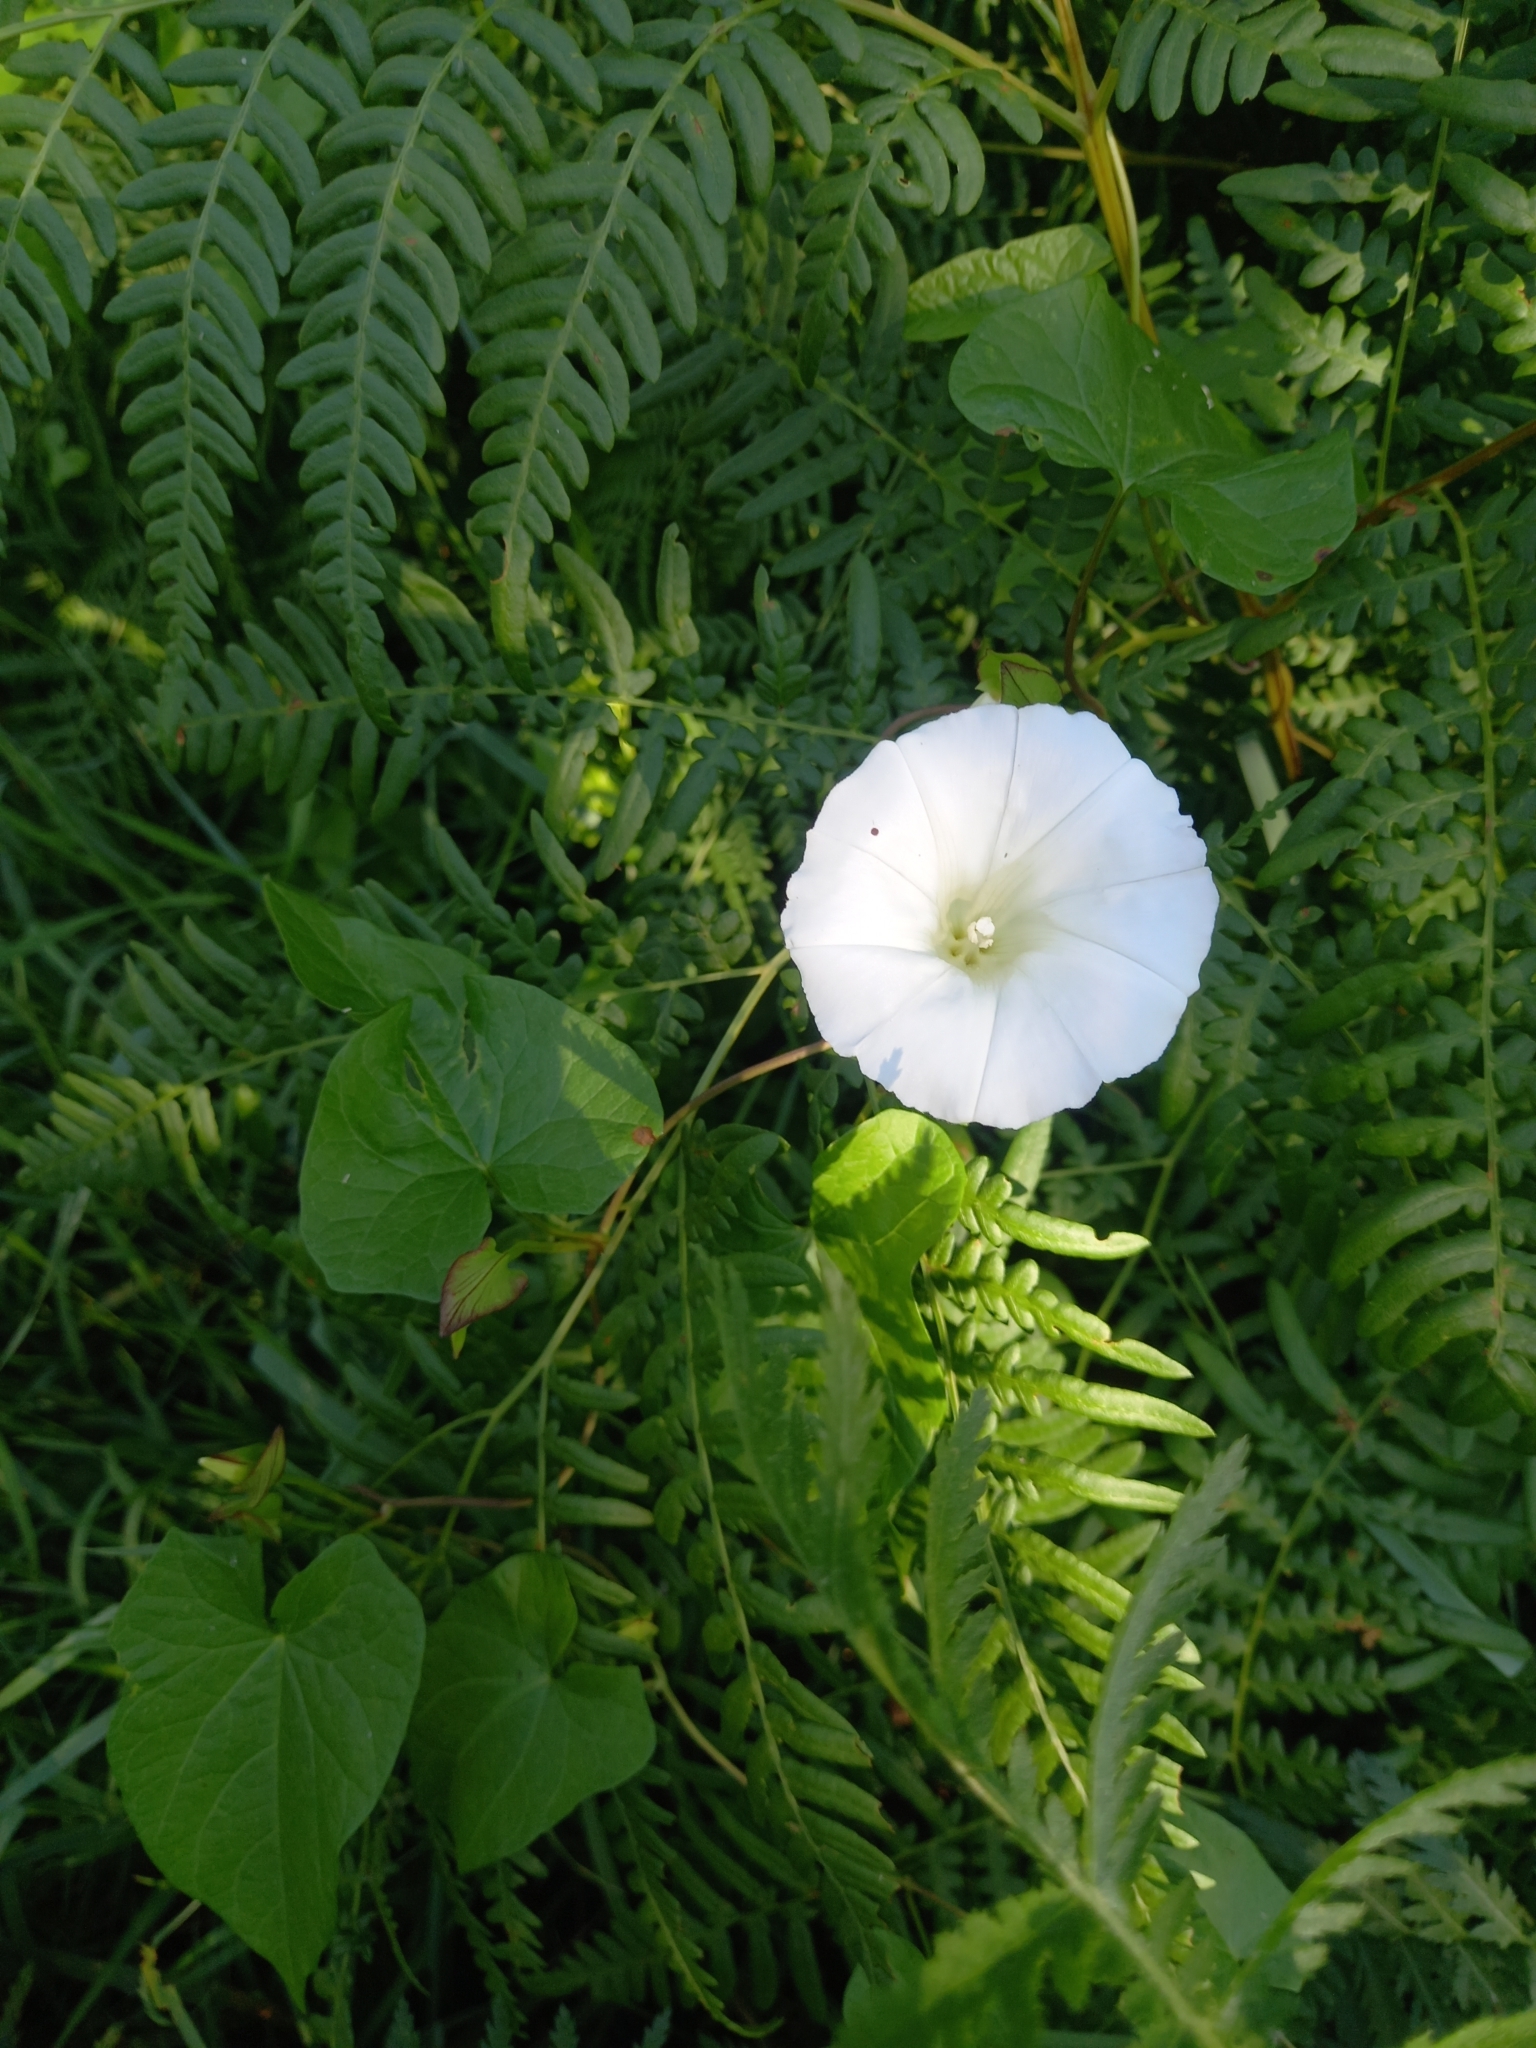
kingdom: Plantae
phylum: Tracheophyta
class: Magnoliopsida
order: Solanales
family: Convolvulaceae
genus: Calystegia
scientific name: Calystegia sepium
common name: Hedge bindweed
